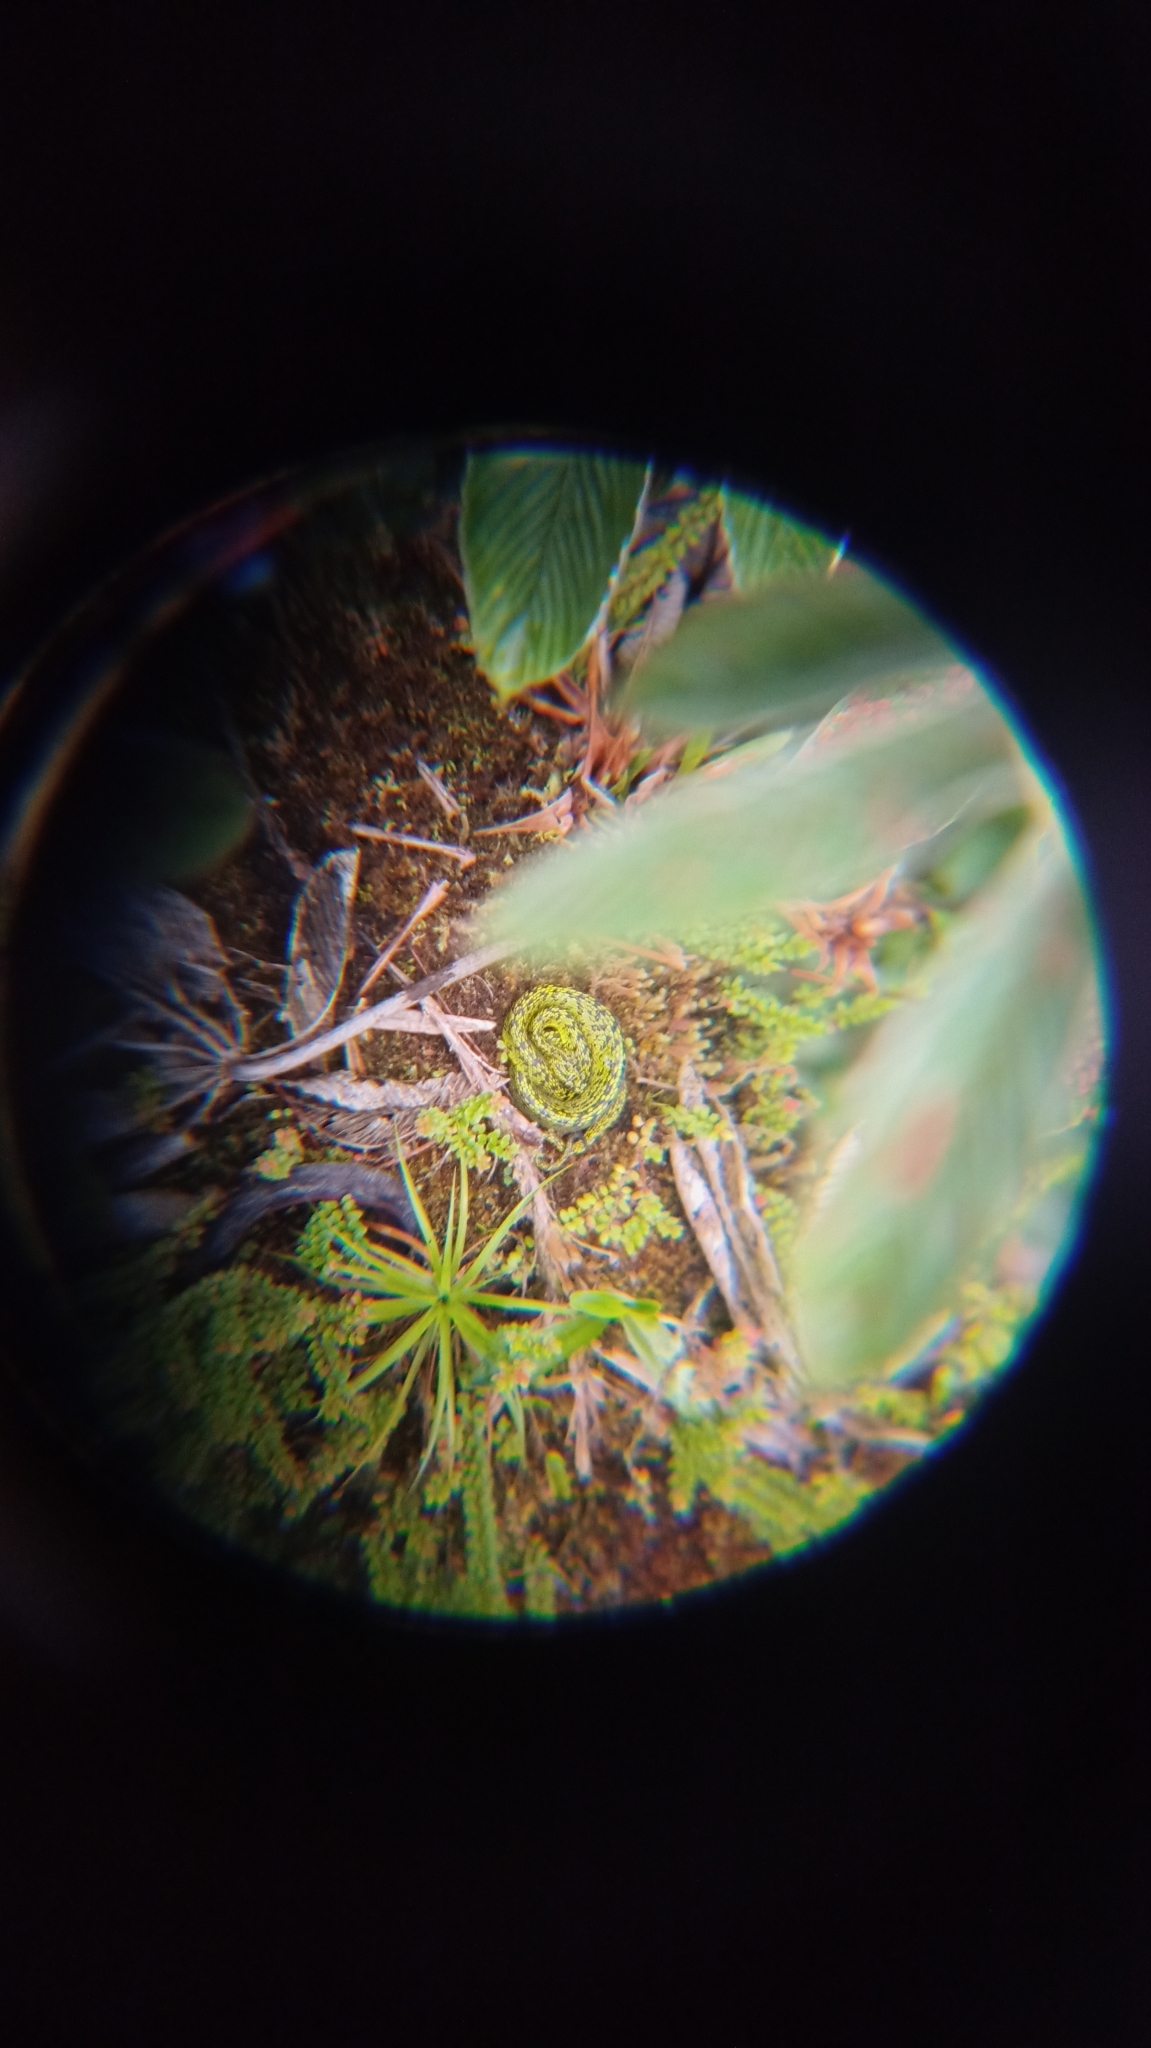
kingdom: Animalia
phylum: Chordata
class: Squamata
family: Viperidae
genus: Bothriechis
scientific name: Bothriechis nigroviridis
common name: Black-speckled palm pit viper
